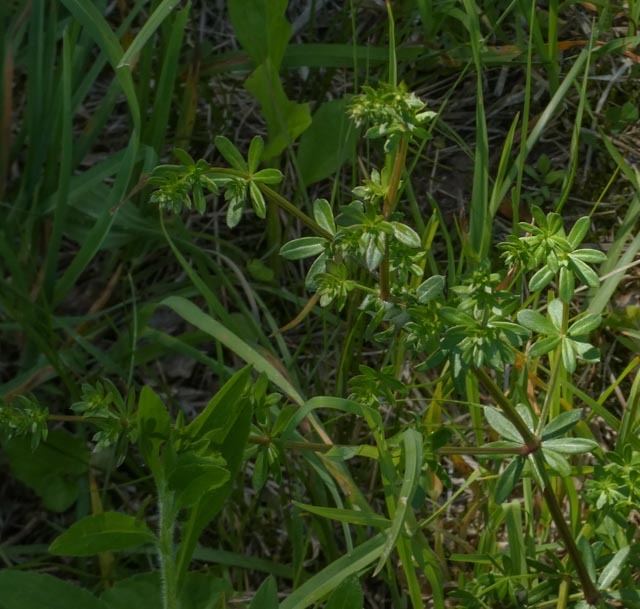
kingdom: Plantae
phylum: Tracheophyta
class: Magnoliopsida
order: Gentianales
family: Rubiaceae
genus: Galium
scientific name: Galium mollugo
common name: Hedge bedstraw
